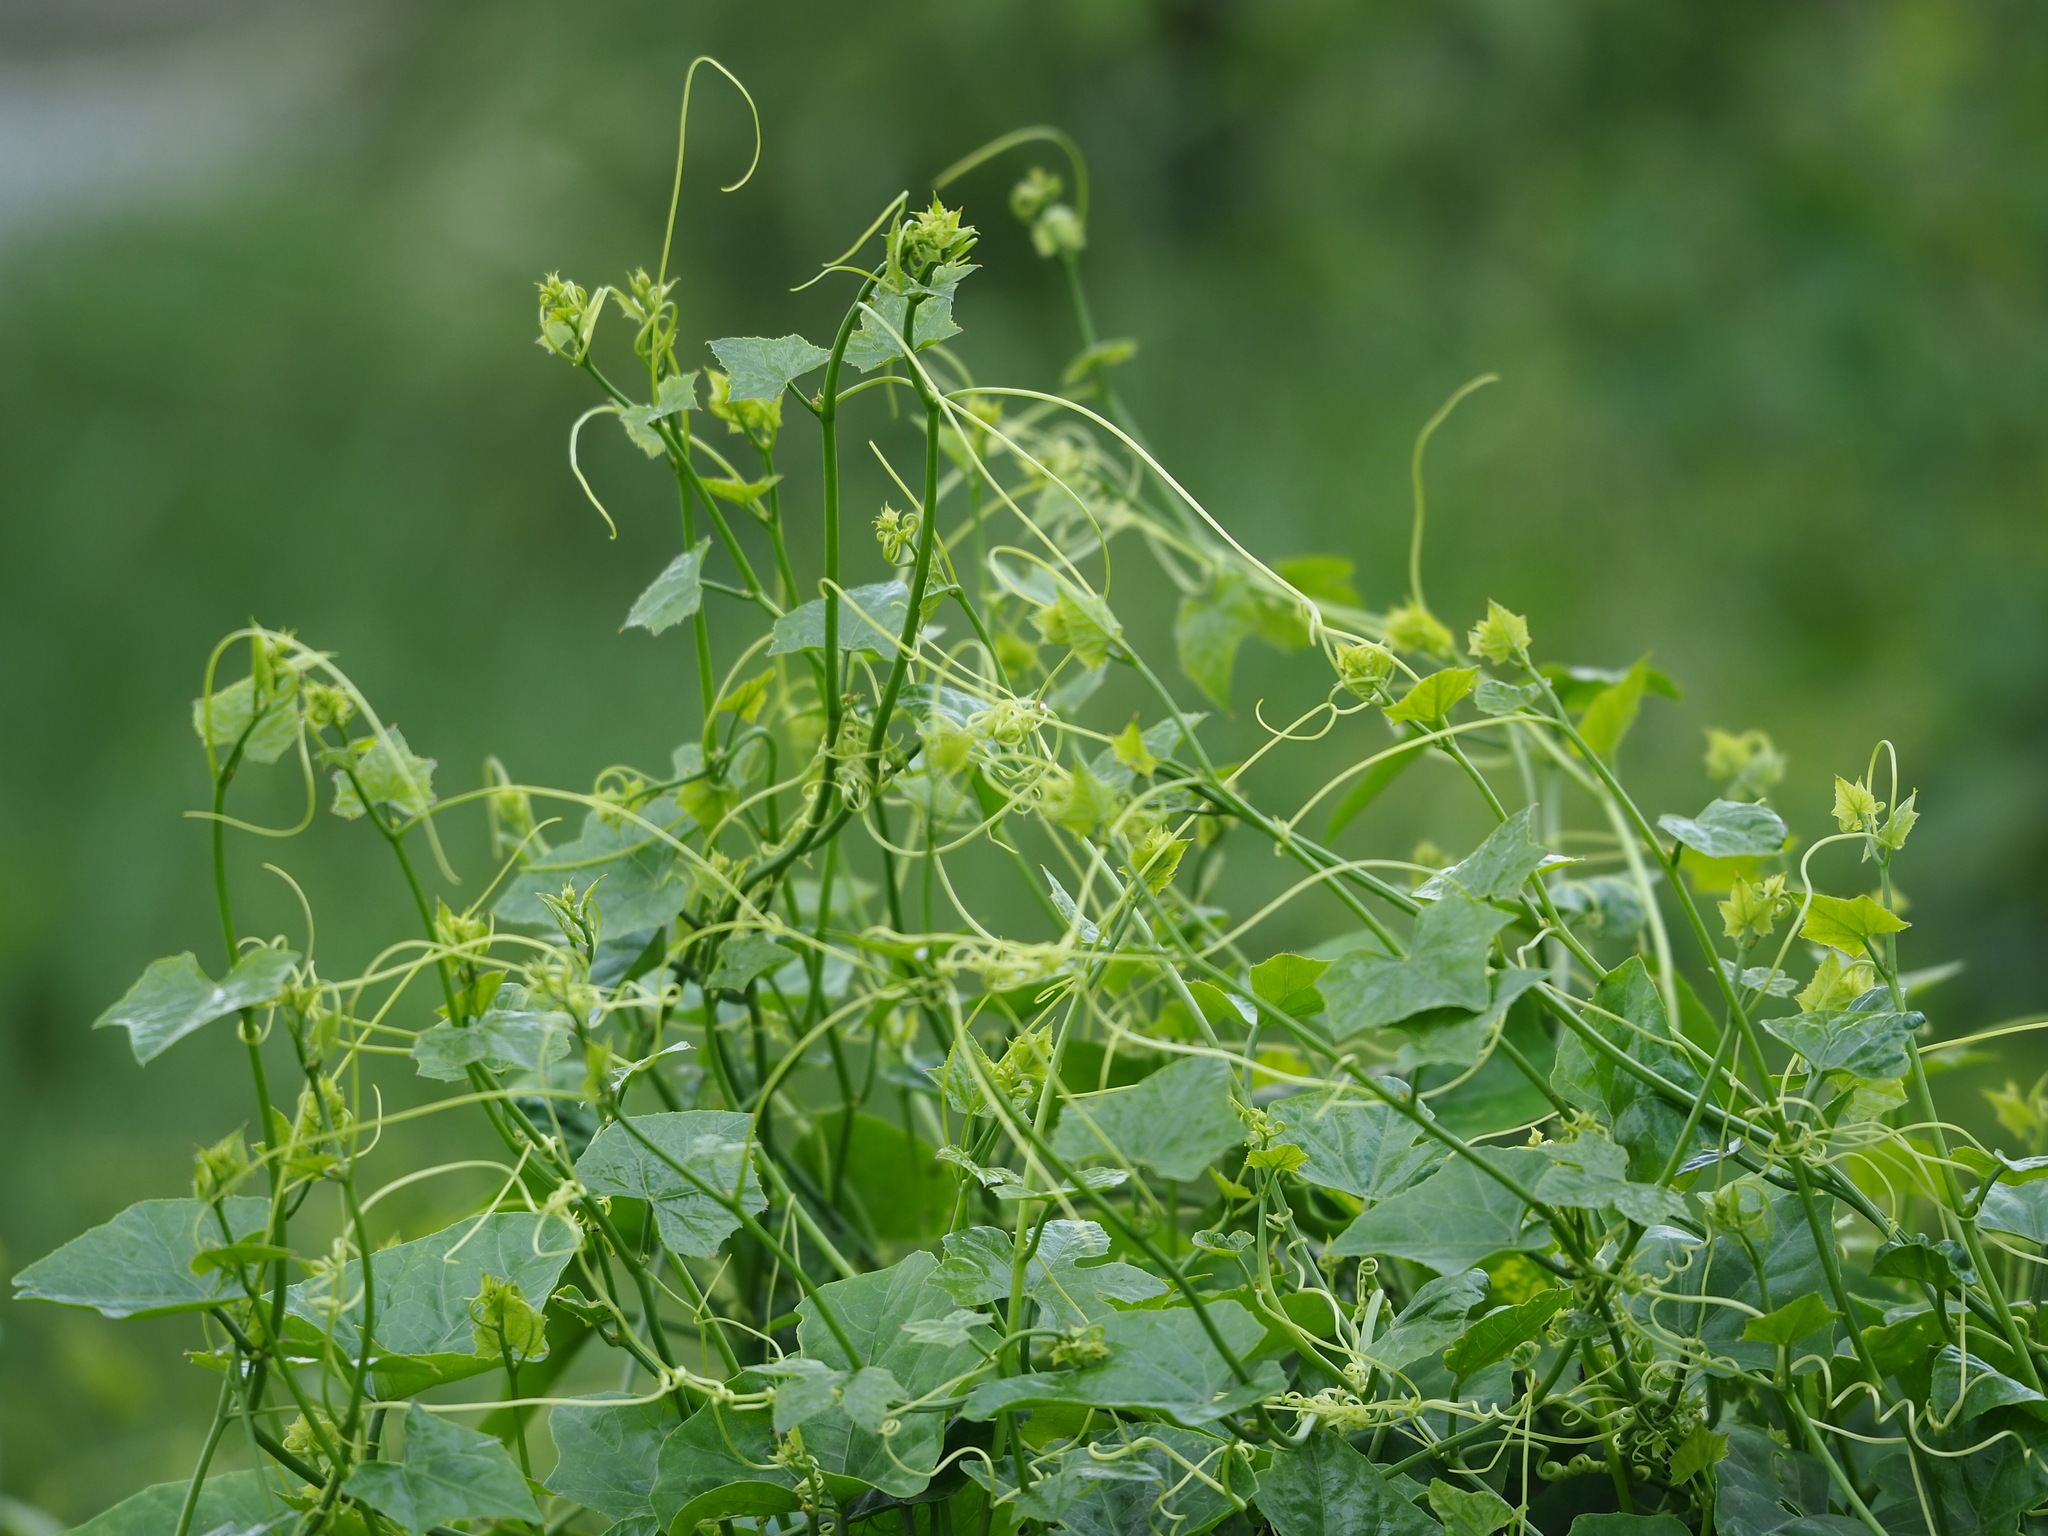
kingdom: Plantae
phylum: Tracheophyta
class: Magnoliopsida
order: Cucurbitales
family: Cucurbitaceae
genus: Coccinia
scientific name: Coccinia grandis
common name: Ivy gourd
